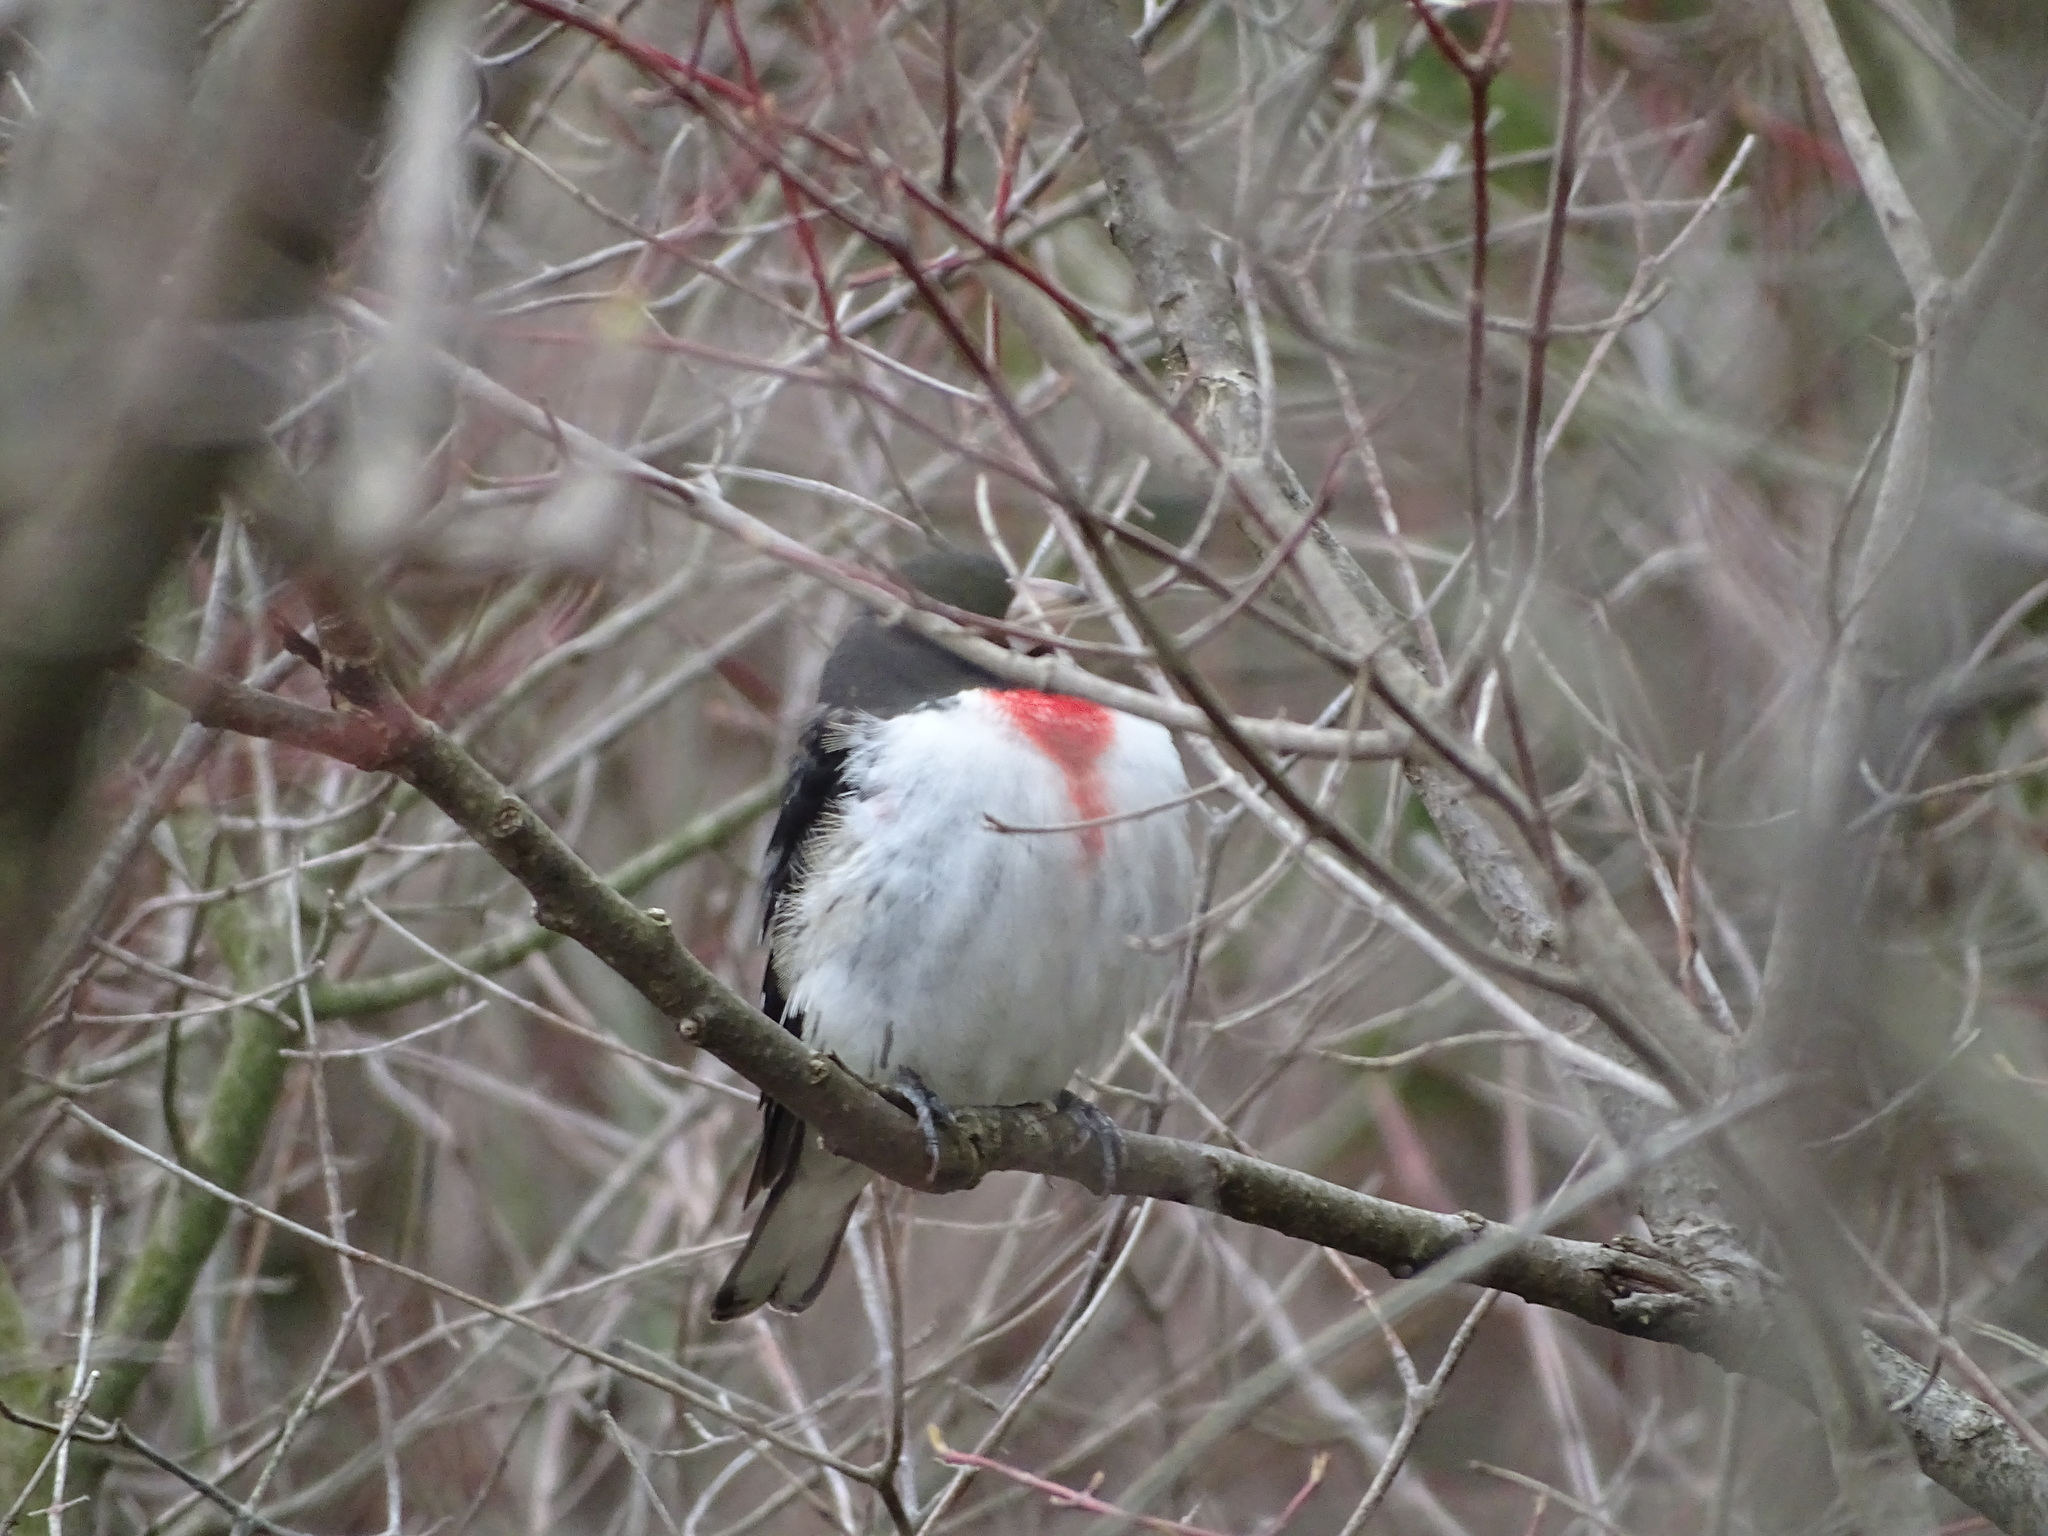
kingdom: Animalia
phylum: Chordata
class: Aves
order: Passeriformes
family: Cardinalidae
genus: Pheucticus
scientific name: Pheucticus ludovicianus
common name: Rose-breasted grosbeak
